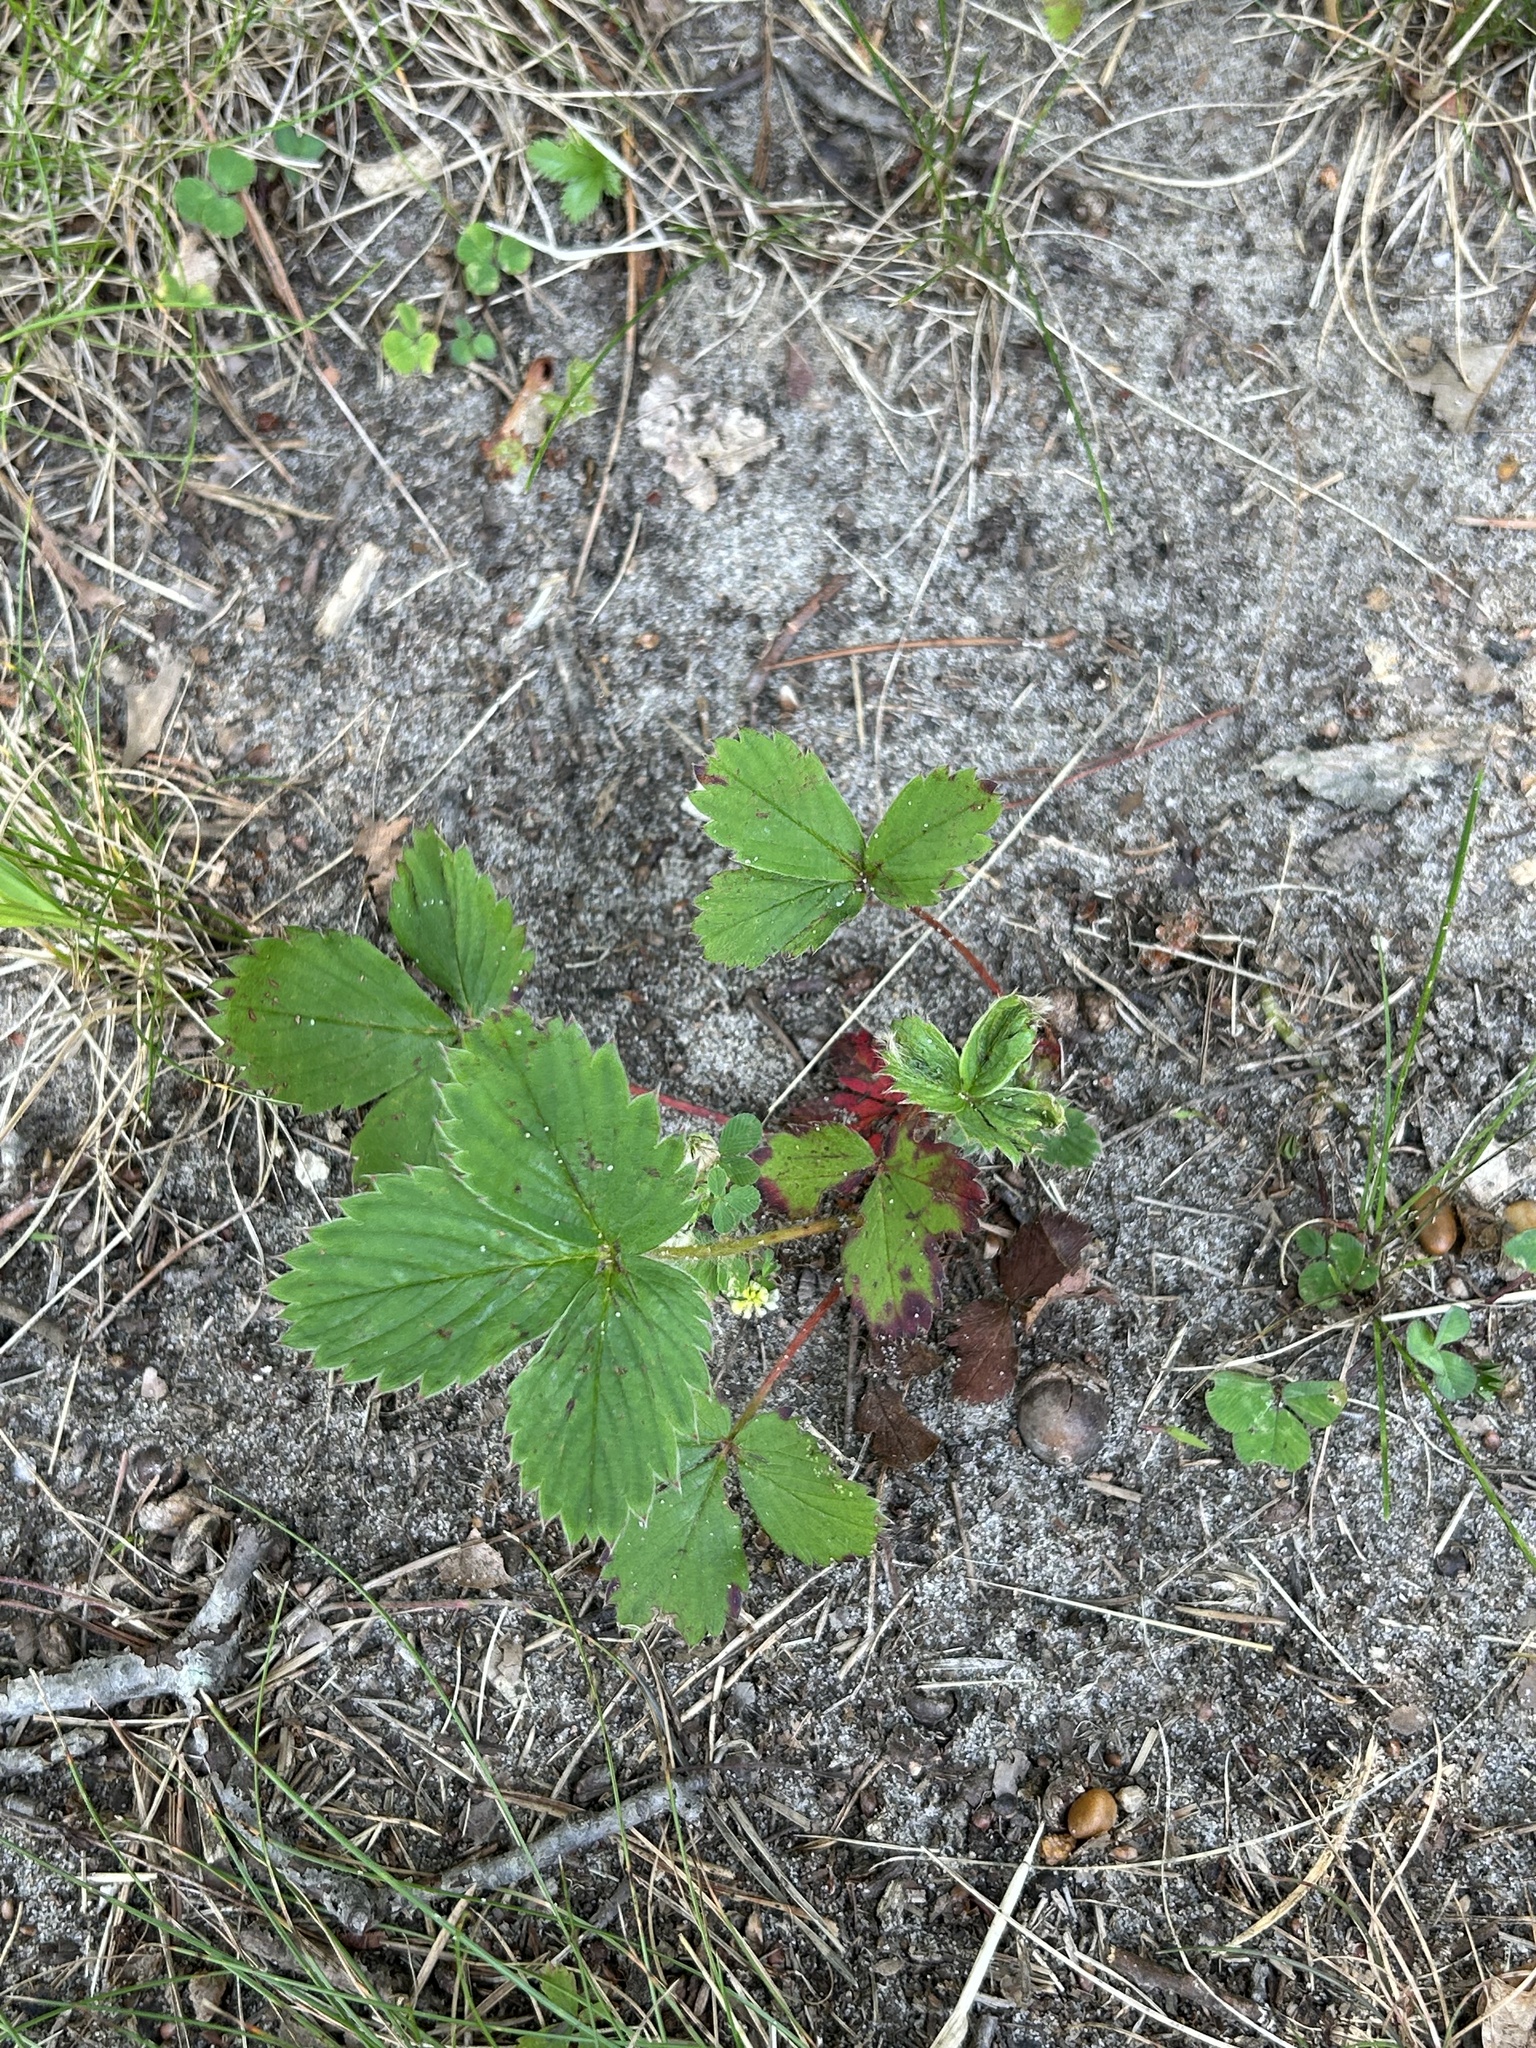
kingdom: Plantae
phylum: Tracheophyta
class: Magnoliopsida
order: Rosales
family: Rosaceae
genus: Fragaria
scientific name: Fragaria virginiana
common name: Thickleaved wild strawberry
